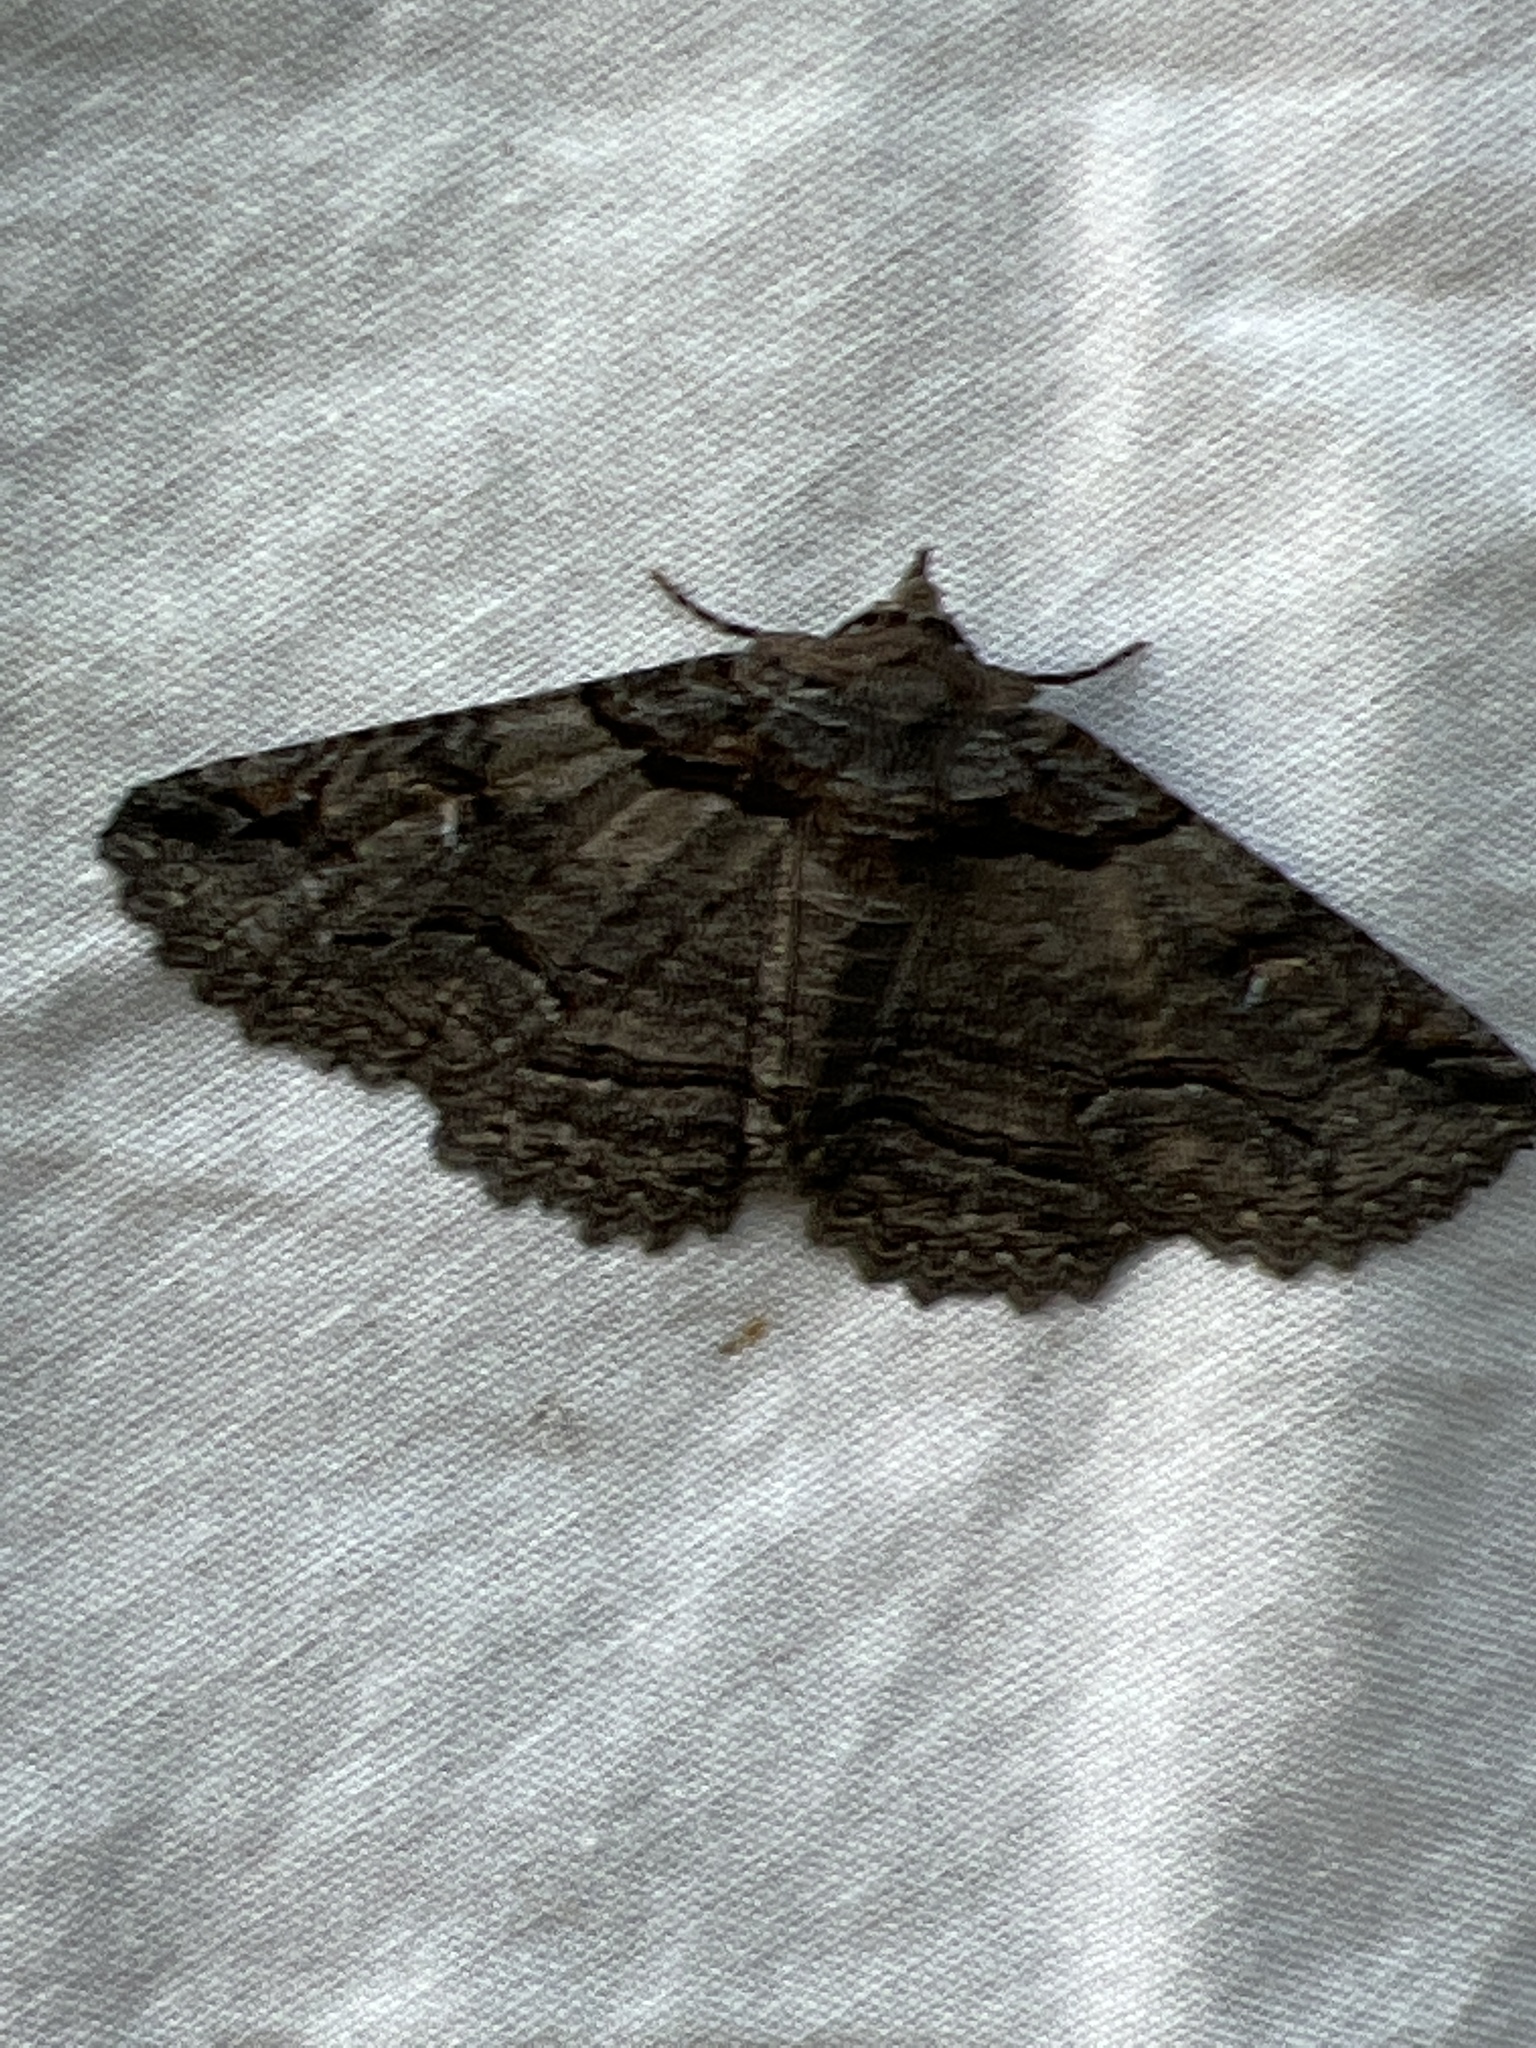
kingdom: Animalia
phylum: Arthropoda
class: Insecta
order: Lepidoptera
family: Erebidae
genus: Zale
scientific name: Zale termina
